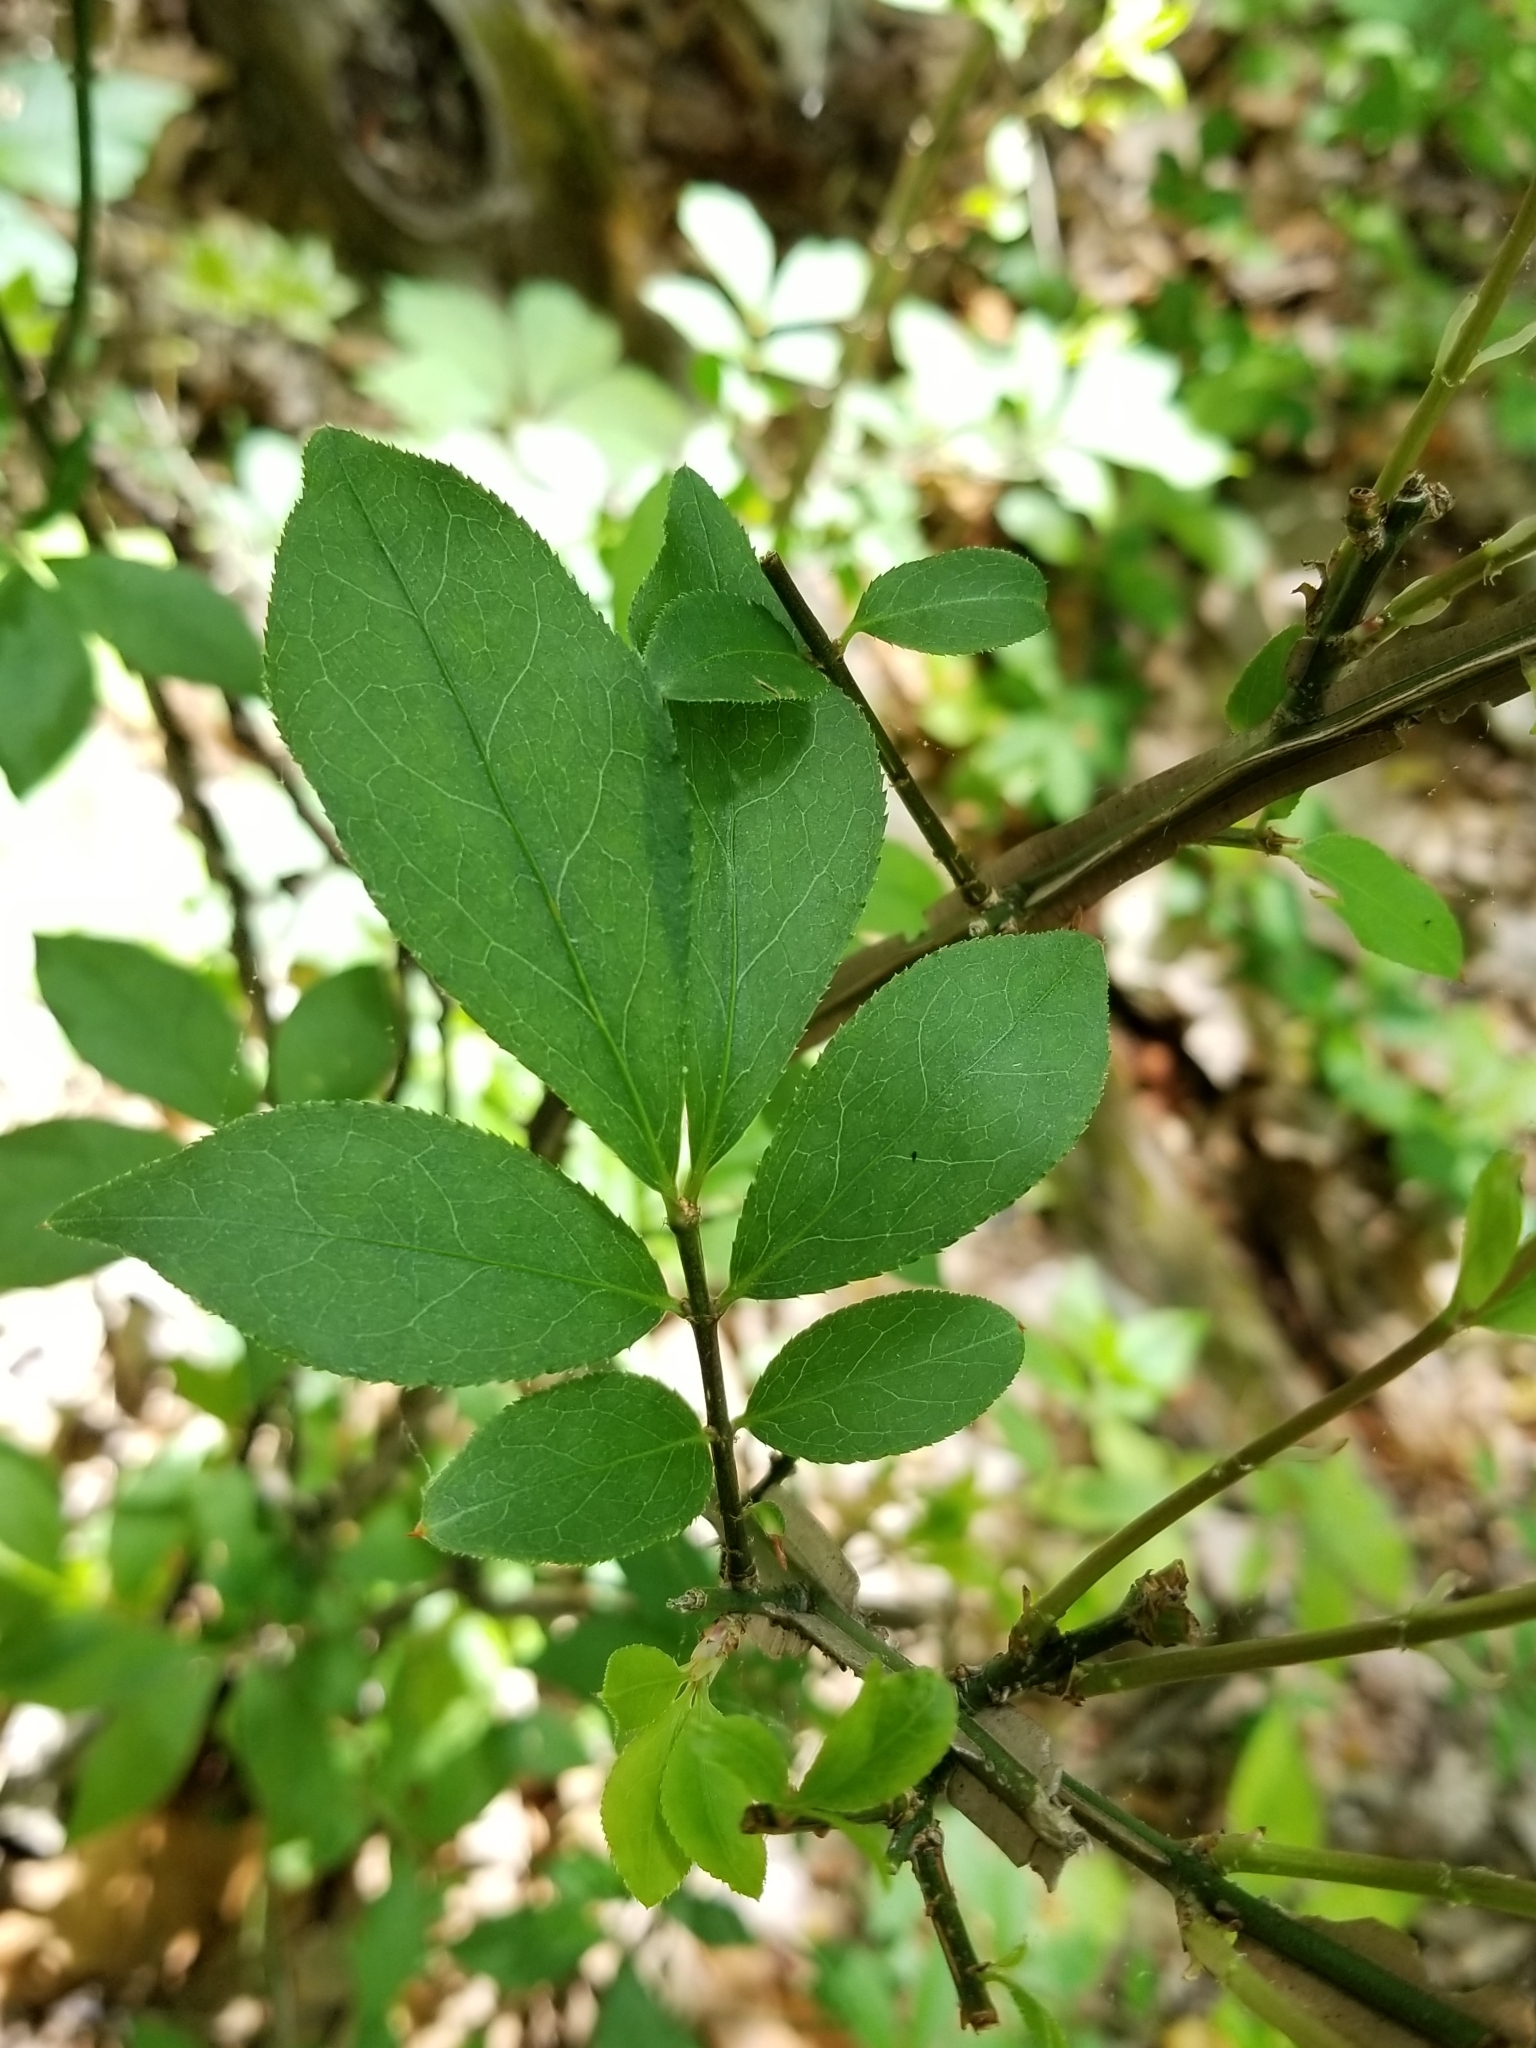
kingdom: Plantae
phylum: Tracheophyta
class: Magnoliopsida
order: Celastrales
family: Celastraceae
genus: Euonymus
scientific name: Euonymus alatus
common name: Winged euonymus
